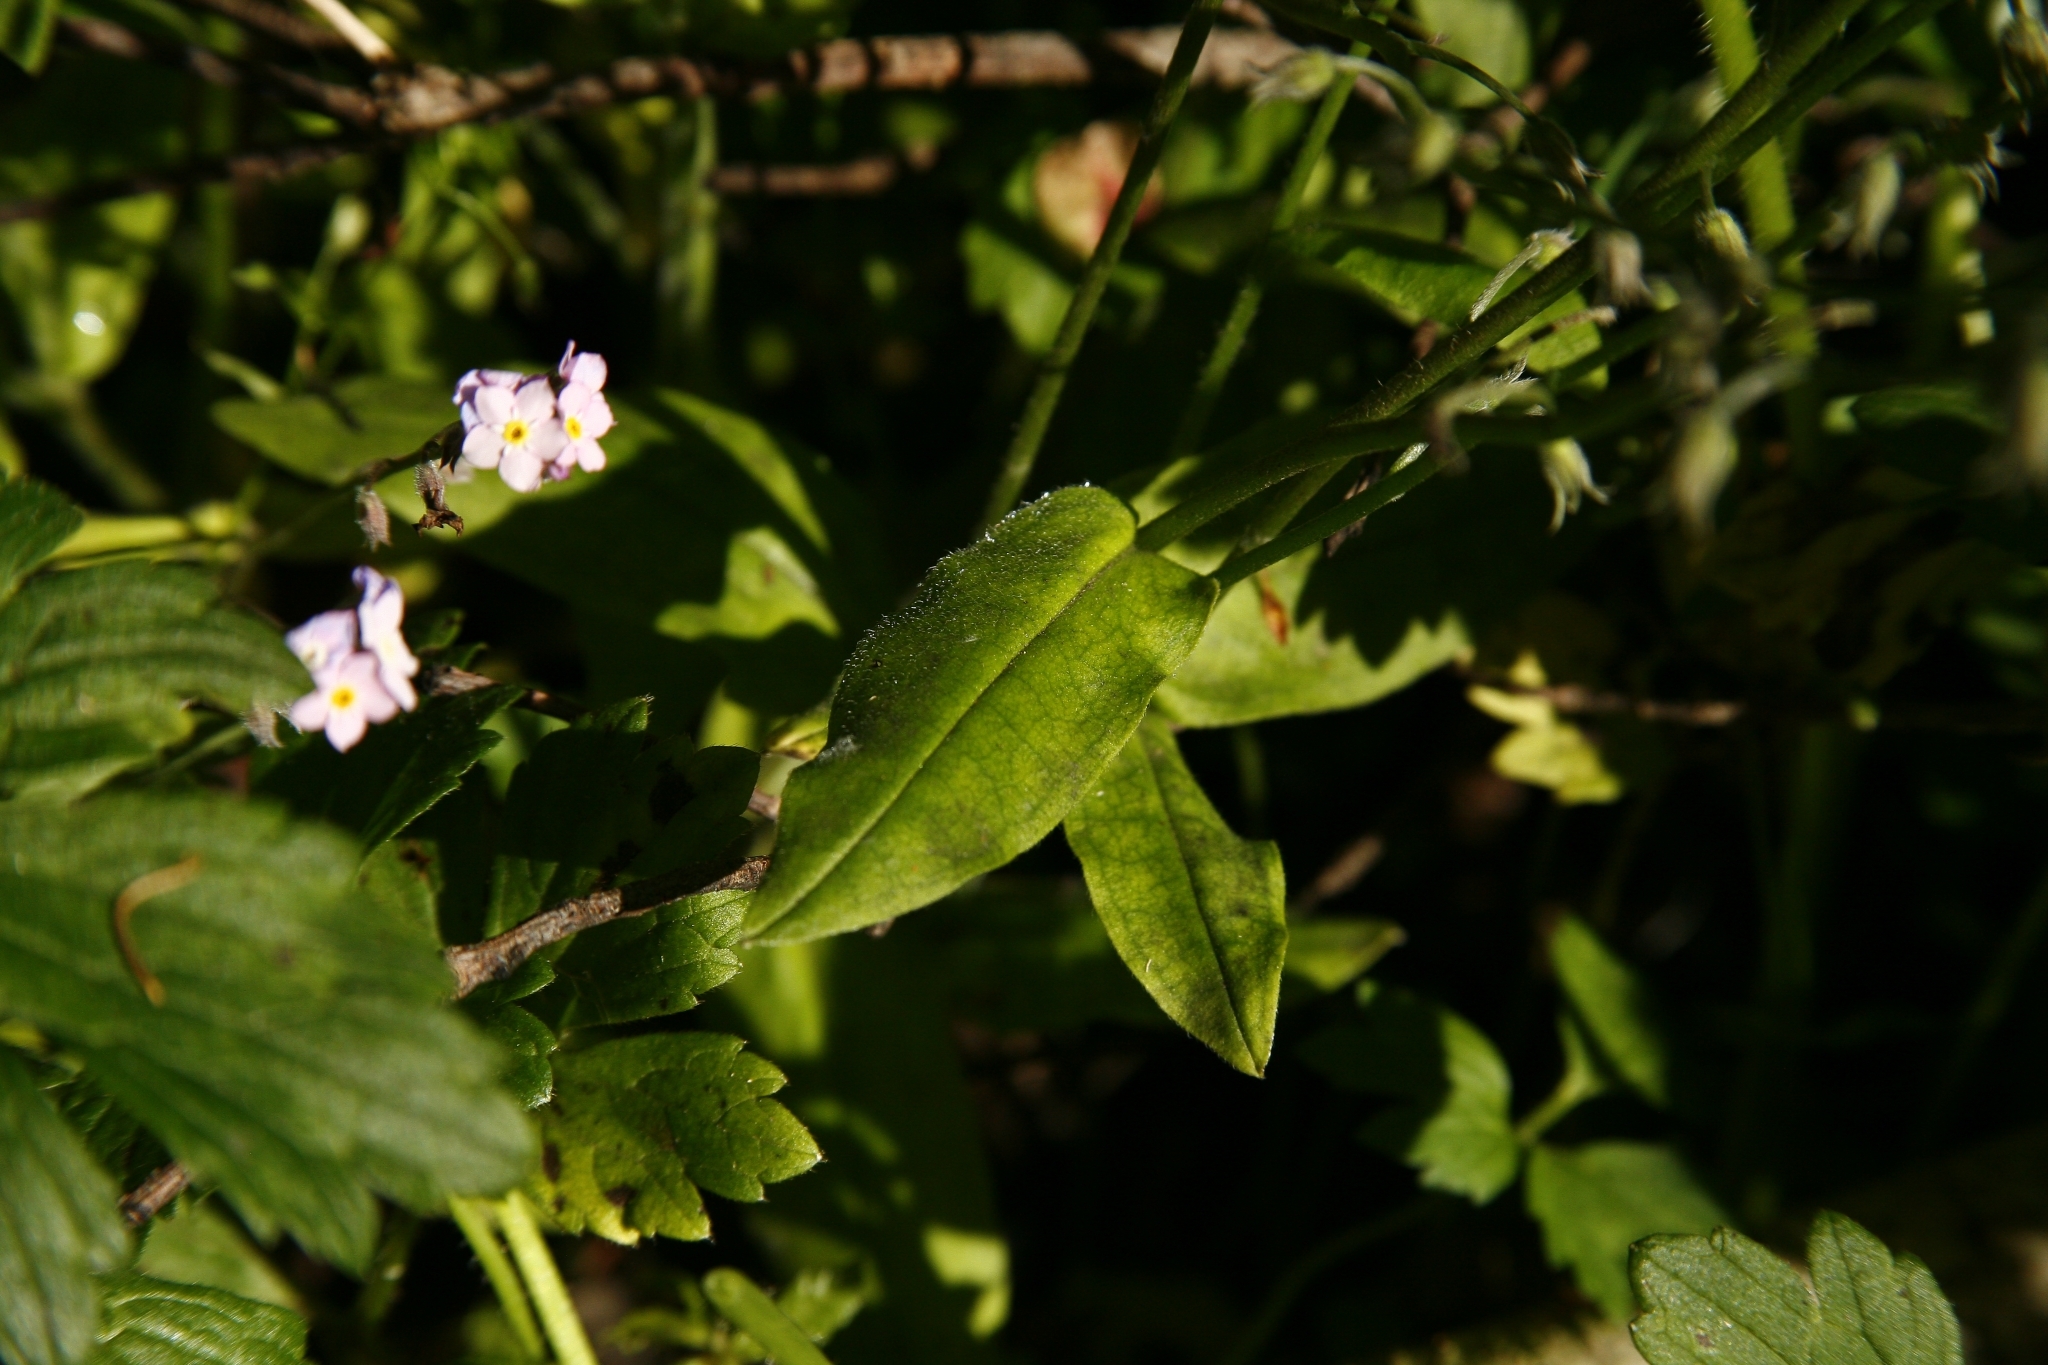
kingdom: Plantae
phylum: Tracheophyta
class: Magnoliopsida
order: Boraginales
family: Boraginaceae
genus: Myosotis
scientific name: Myosotis sylvatica
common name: Wood forget-me-not
